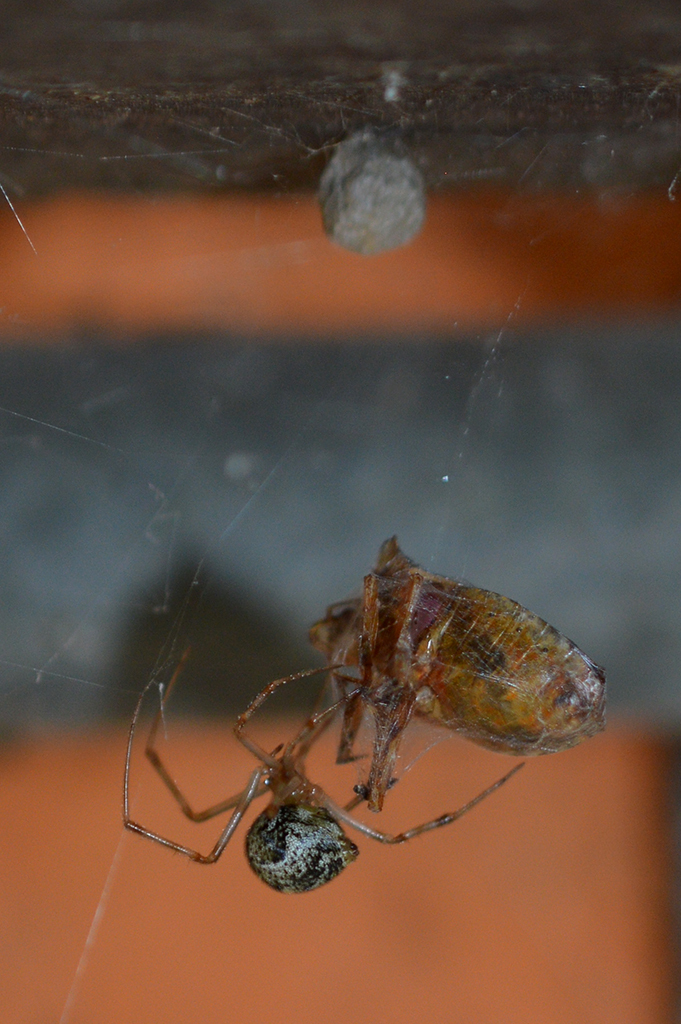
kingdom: Animalia
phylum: Arthropoda
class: Insecta
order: Hemiptera
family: Pentatomidae
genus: Pentatoma
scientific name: Pentatoma rufipes
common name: Forest bug
